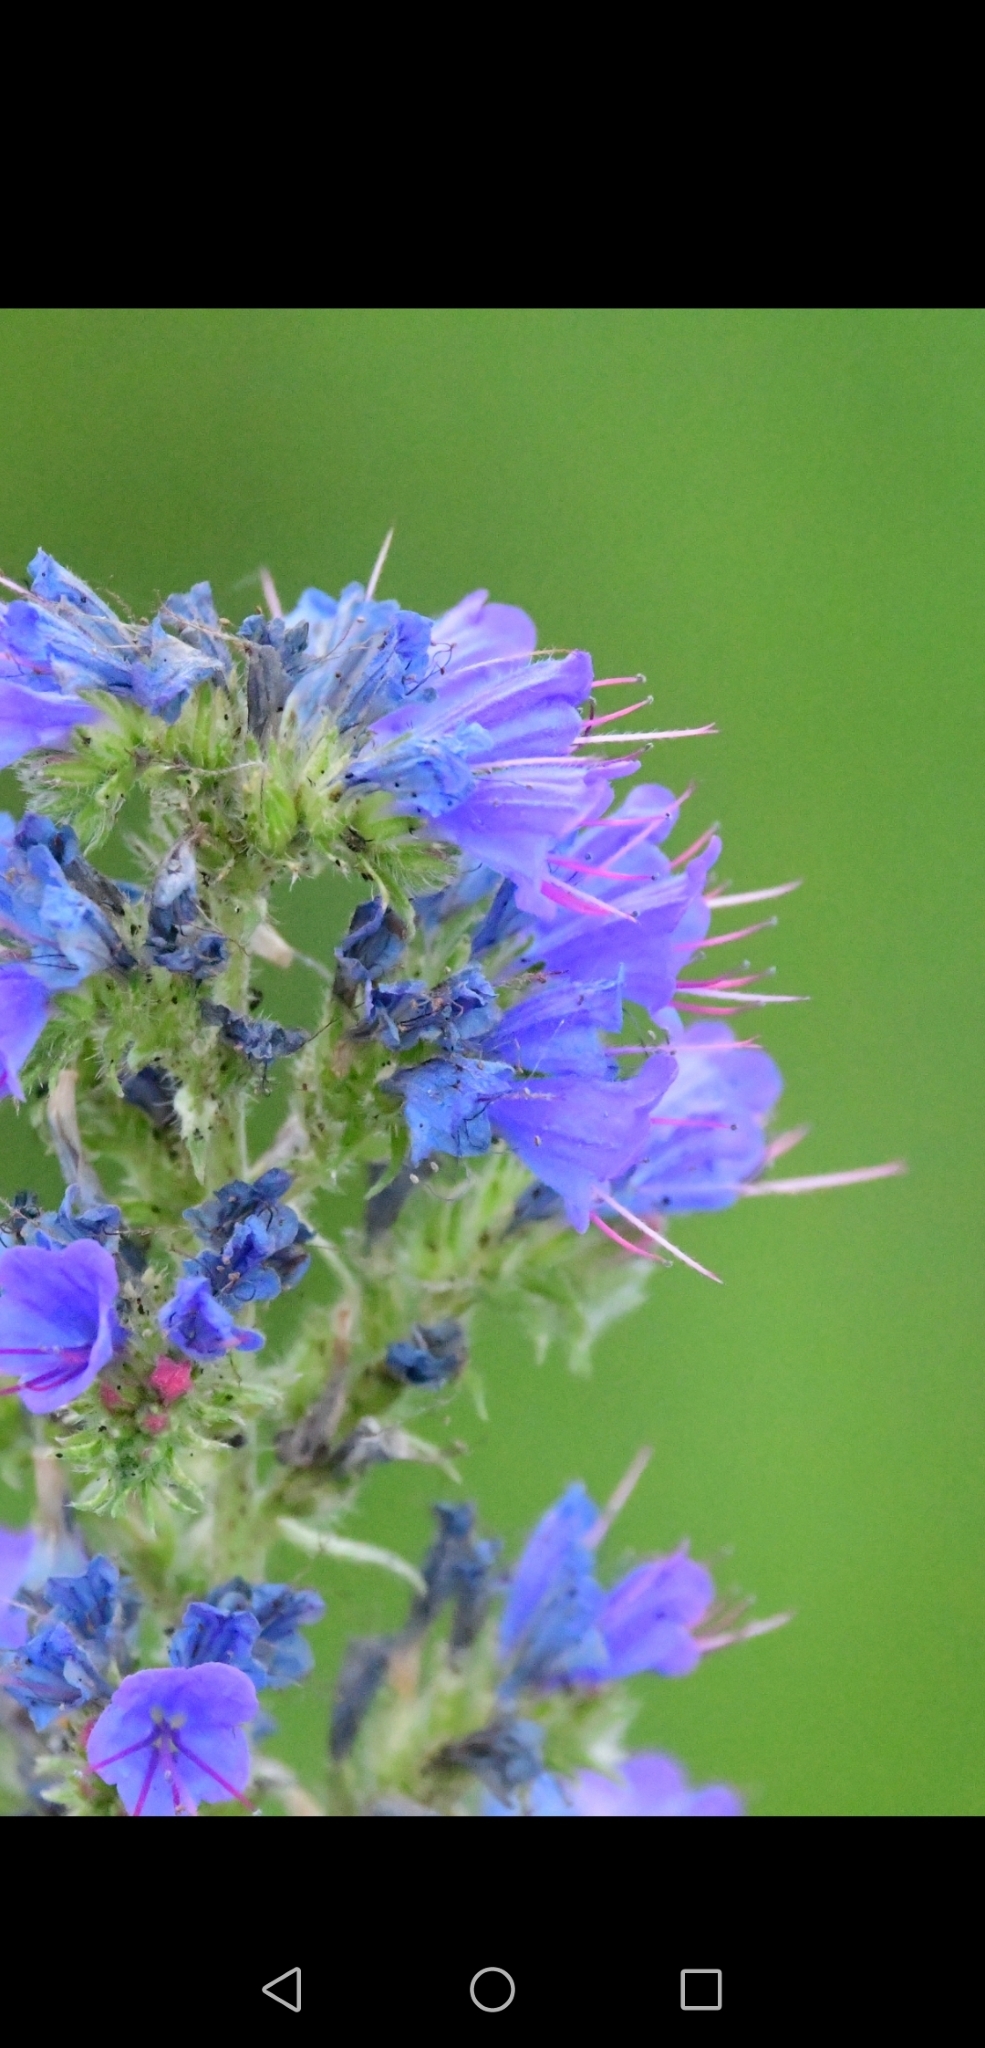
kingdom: Plantae
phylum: Tracheophyta
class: Magnoliopsida
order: Boraginales
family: Boraginaceae
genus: Echium
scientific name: Echium vulgare
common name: Common viper's bugloss
